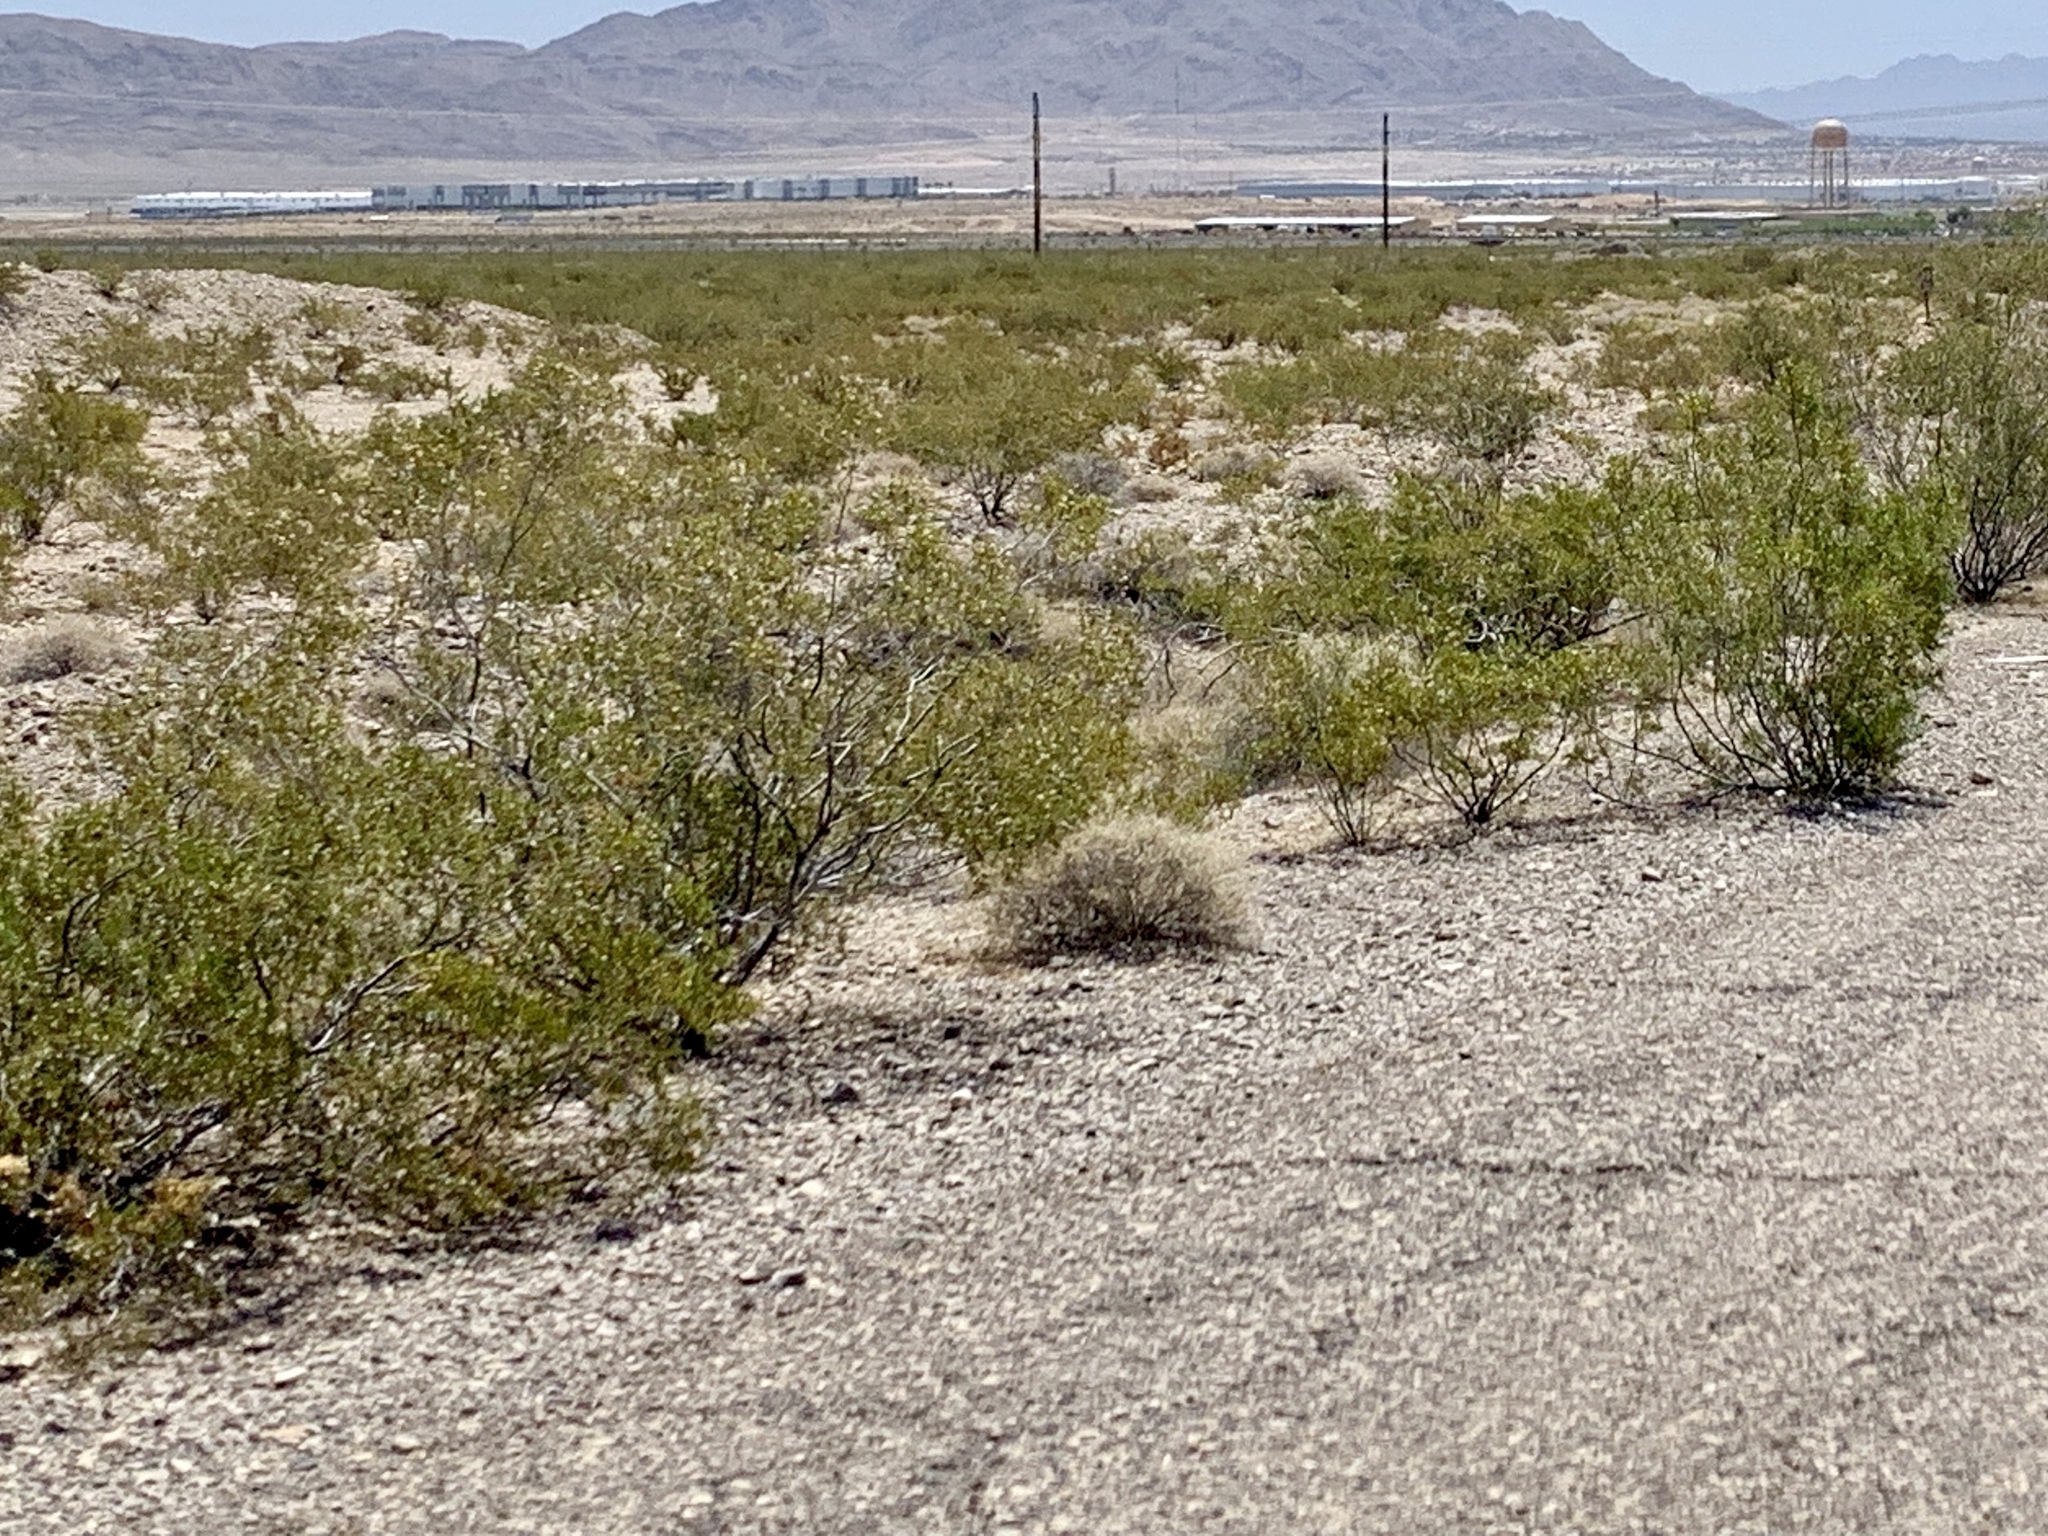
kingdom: Plantae
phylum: Tracheophyta
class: Magnoliopsida
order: Zygophyllales
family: Zygophyllaceae
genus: Larrea
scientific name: Larrea tridentata
